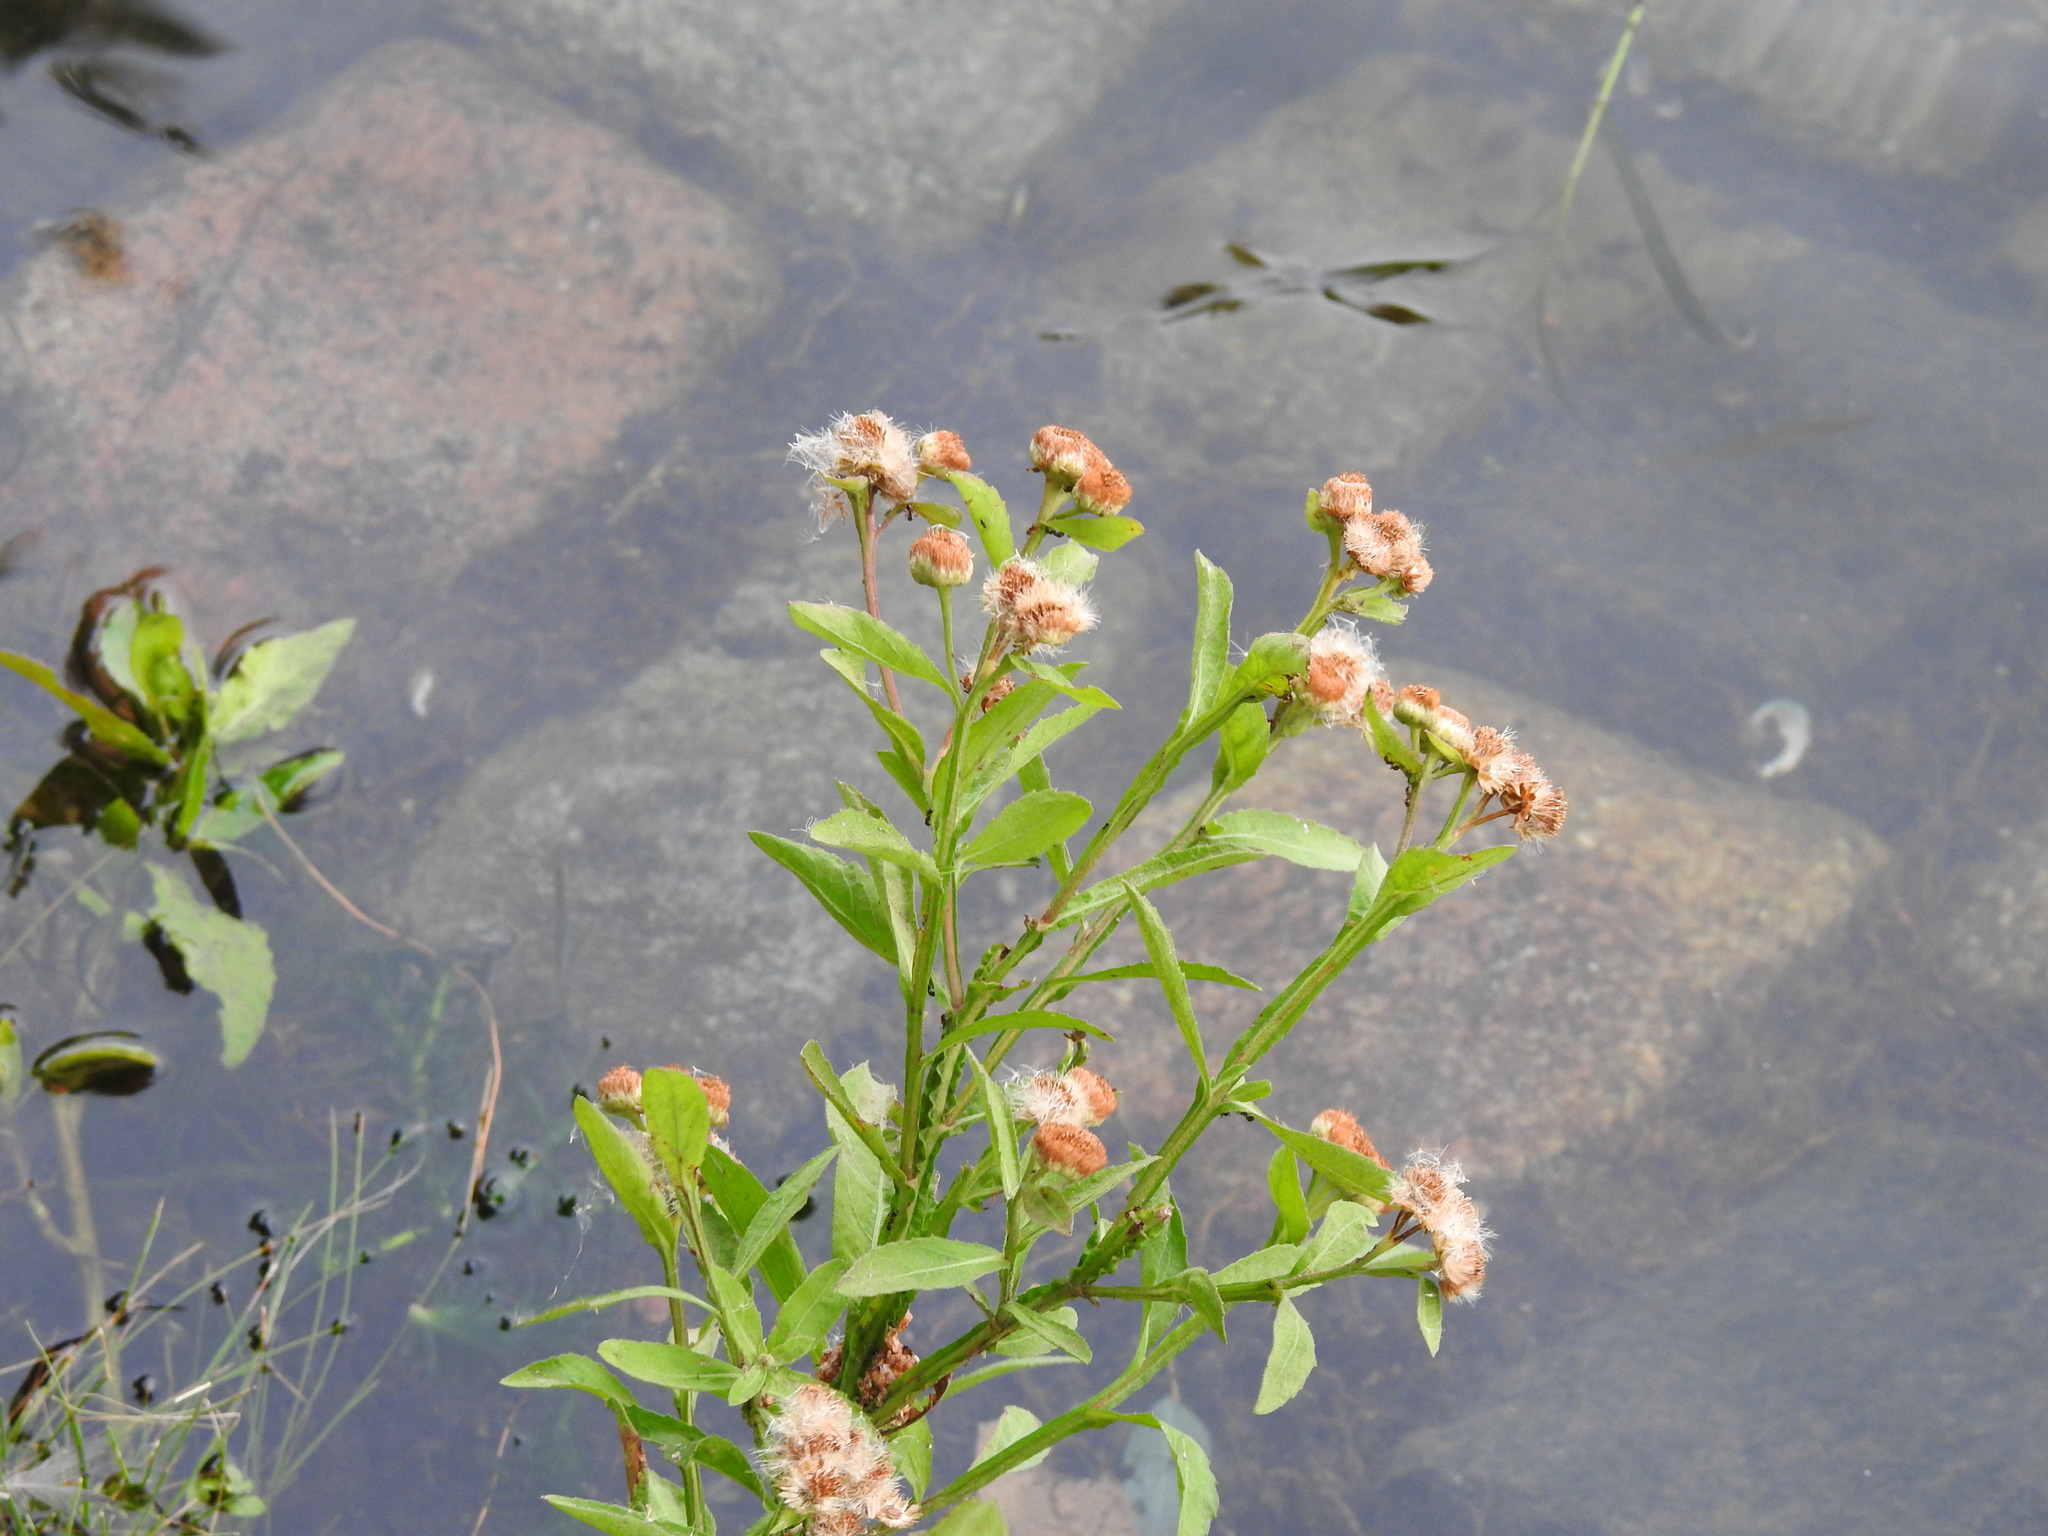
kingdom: Plantae
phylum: Tracheophyta
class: Magnoliopsida
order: Asterales
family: Asteraceae
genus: Pluchea
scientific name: Pluchea sagittalis
